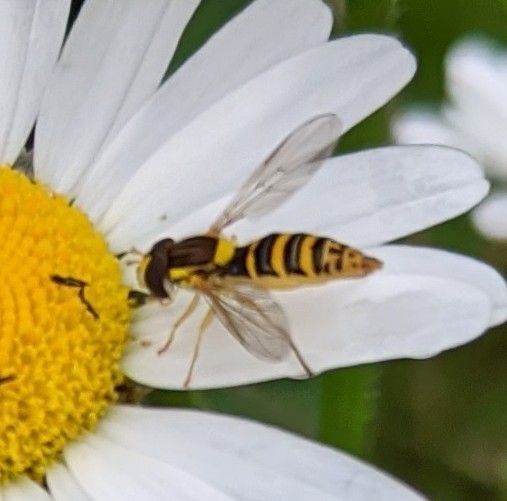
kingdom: Animalia
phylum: Arthropoda
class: Insecta
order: Diptera
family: Syrphidae
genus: Sphaerophoria
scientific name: Sphaerophoria
